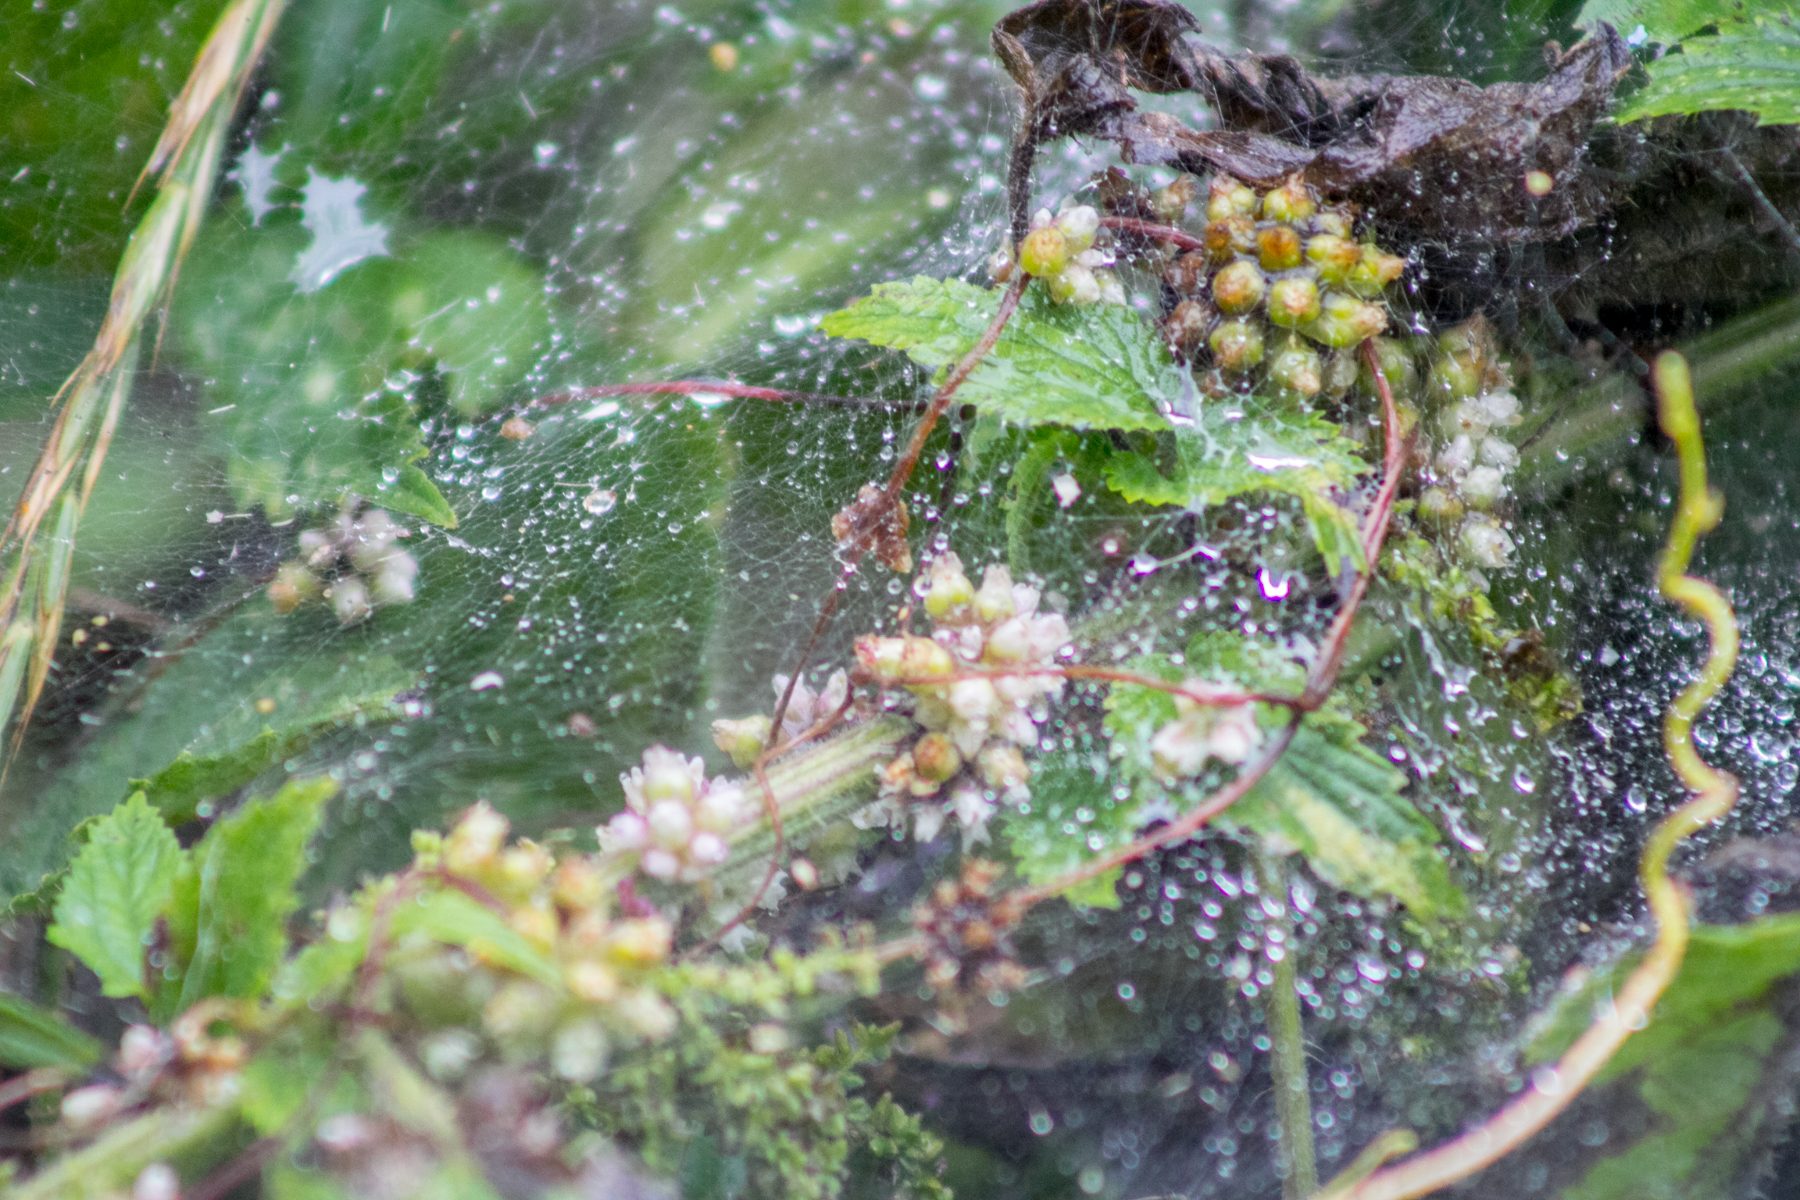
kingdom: Plantae
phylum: Tracheophyta
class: Magnoliopsida
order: Solanales
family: Convolvulaceae
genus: Cuscuta
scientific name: Cuscuta europaea
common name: Greater dodder
